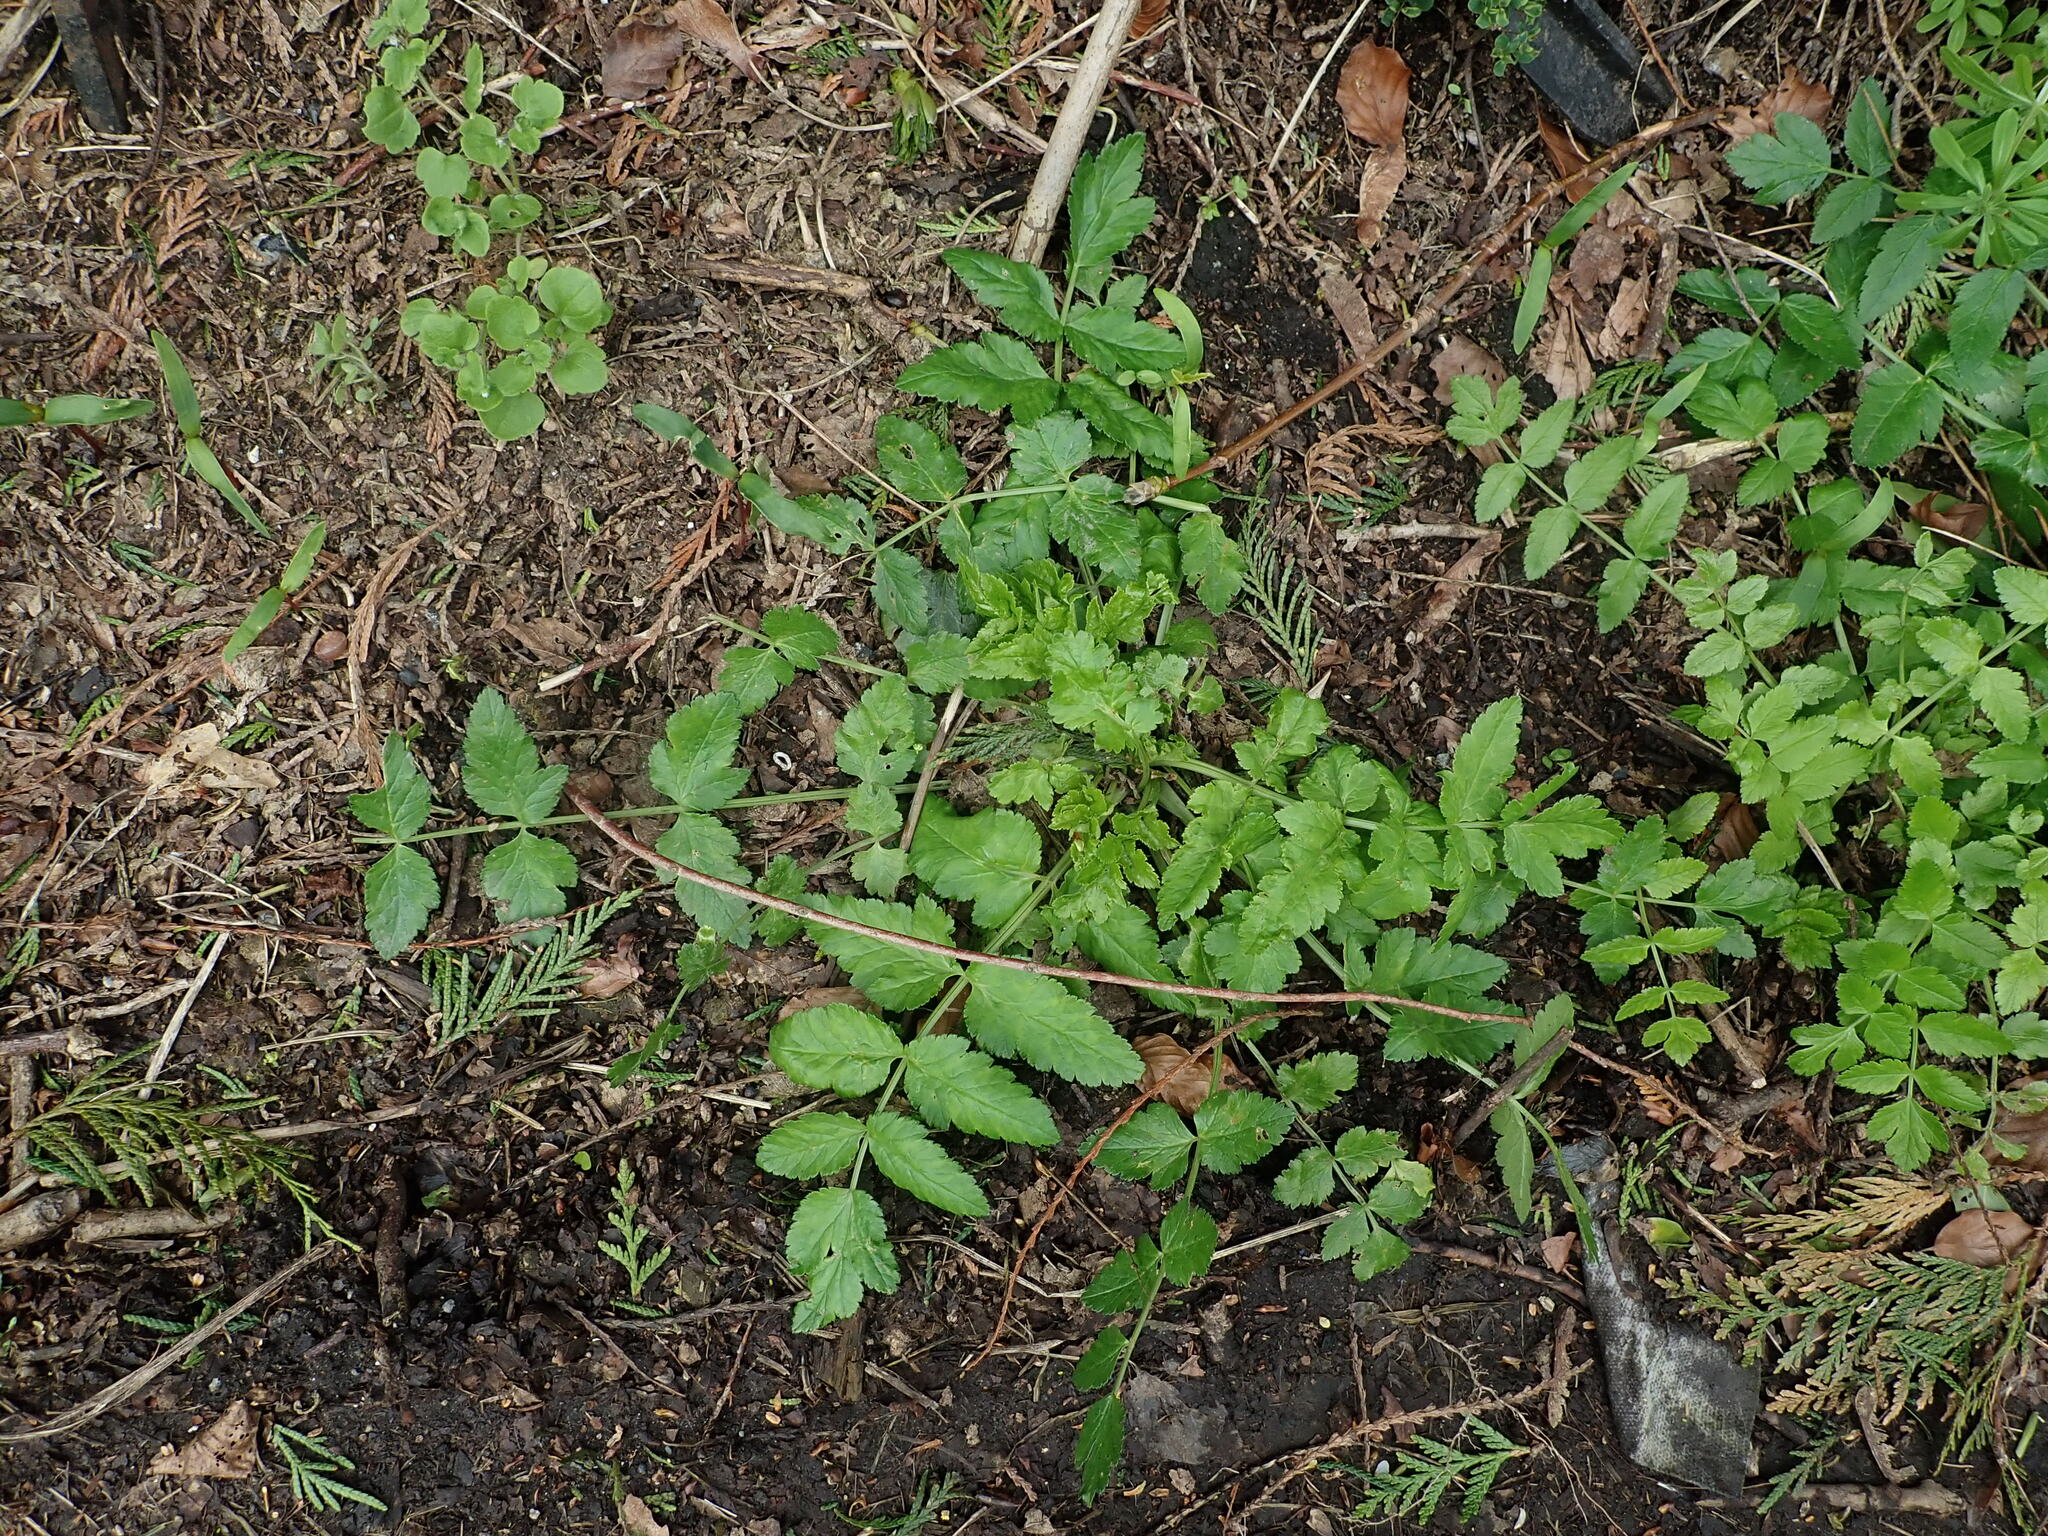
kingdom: Plantae
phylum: Tracheophyta
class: Magnoliopsida
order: Apiales
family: Apiaceae
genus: Sison
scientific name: Sison amomum
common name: Stone-parsley
